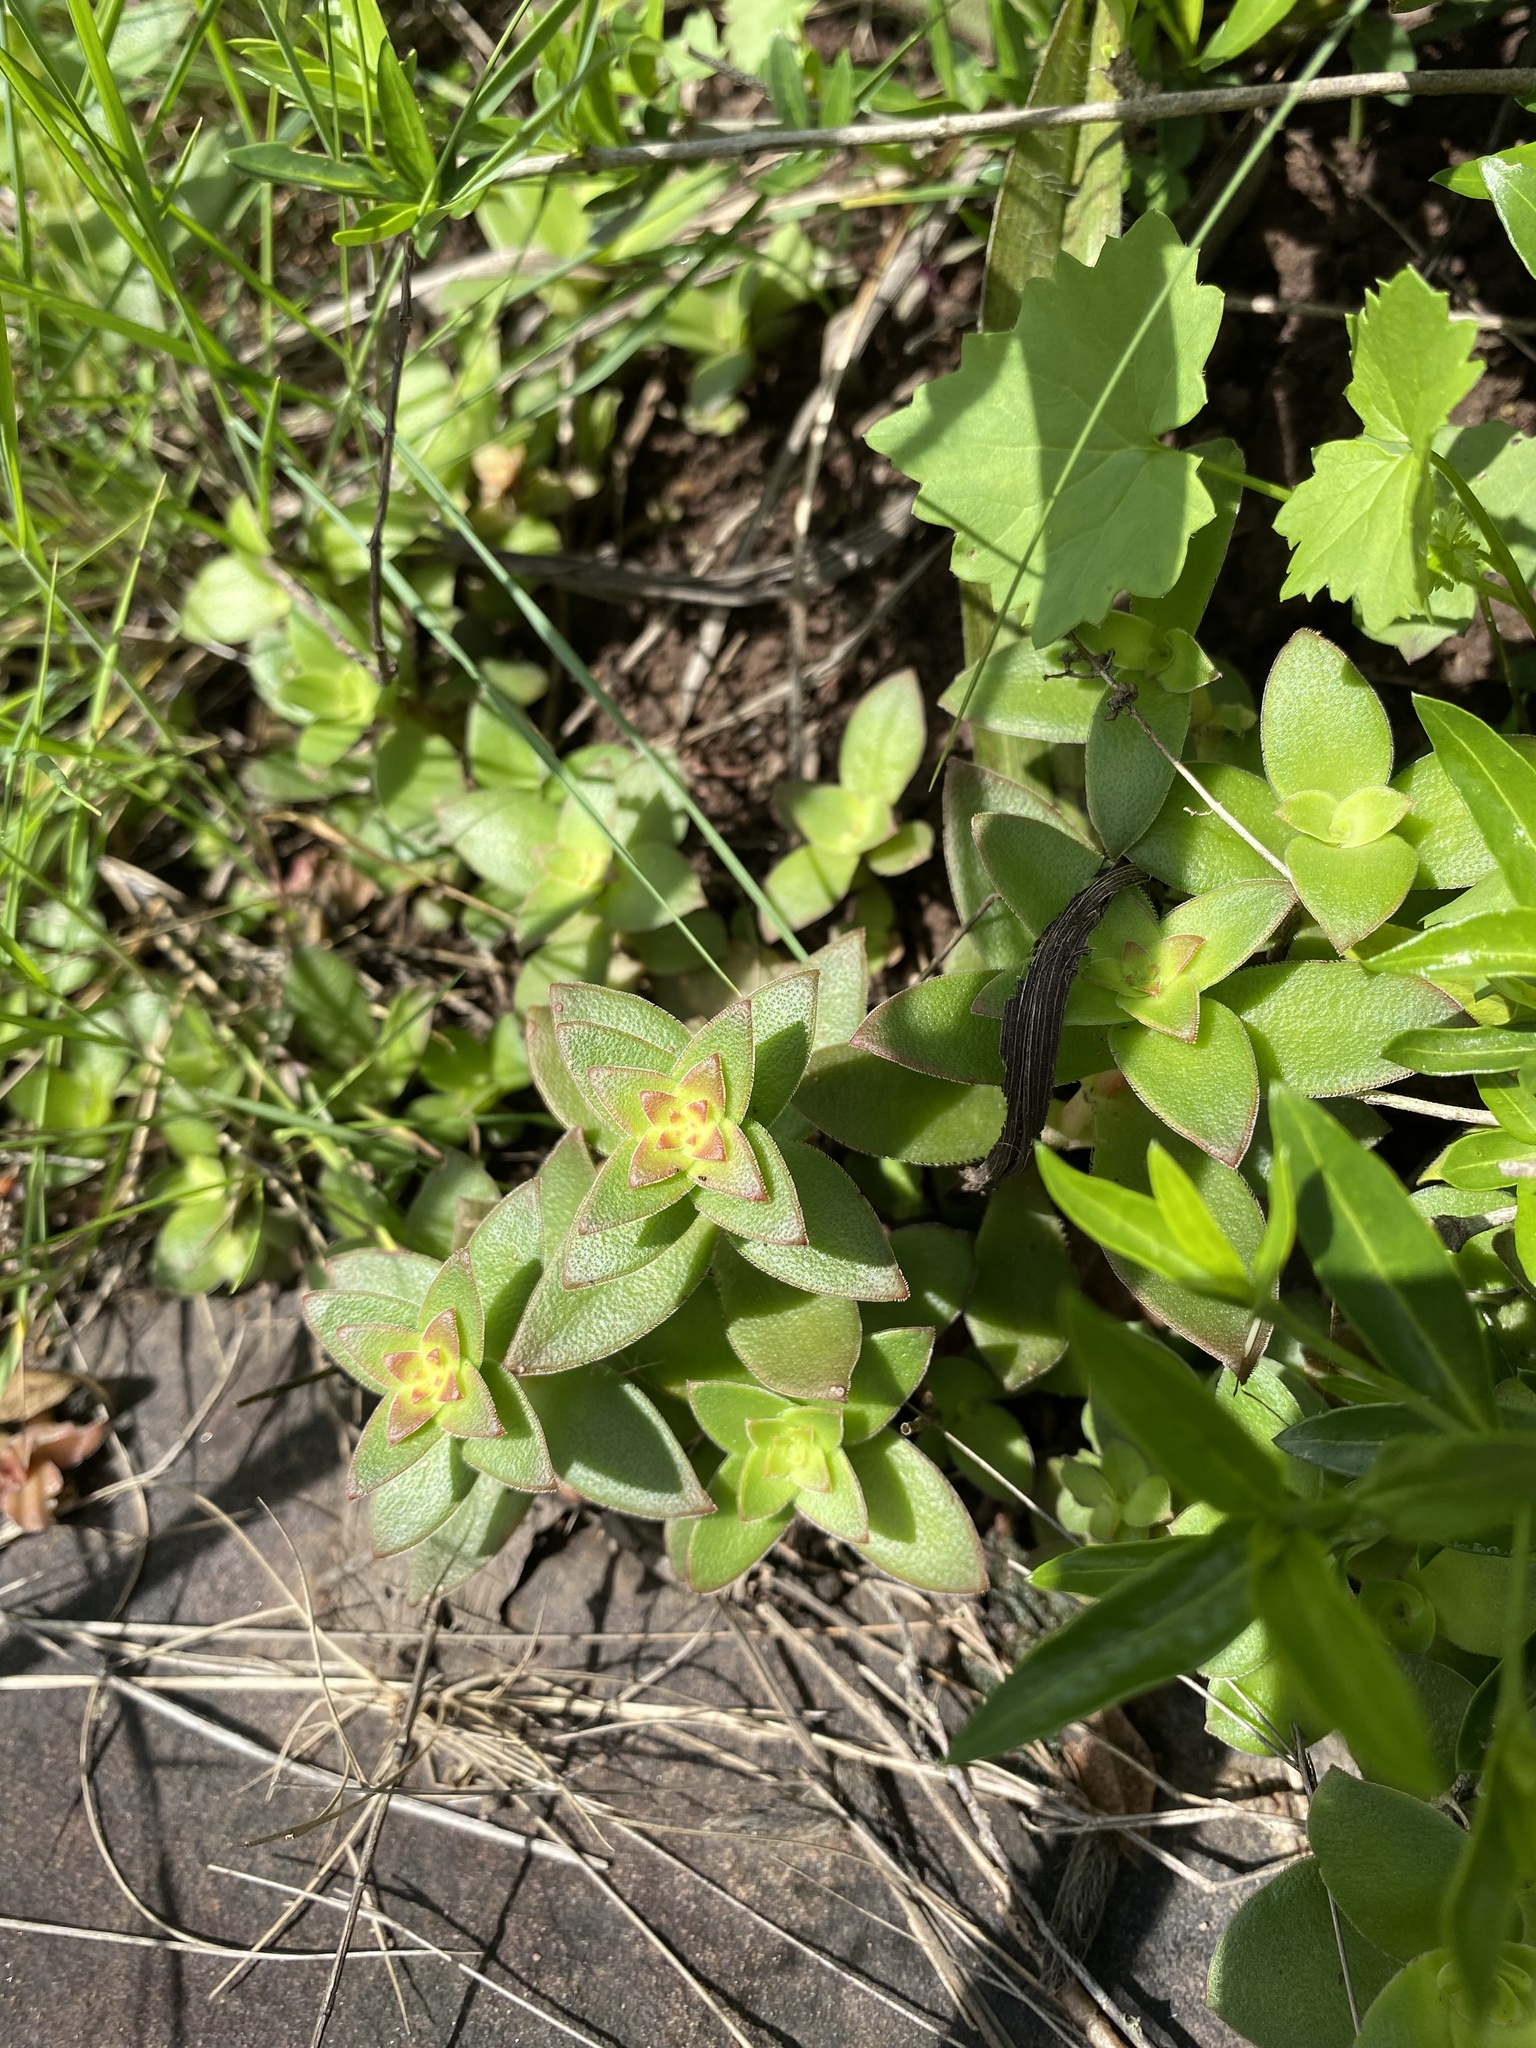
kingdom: Plantae
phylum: Tracheophyta
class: Magnoliopsida
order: Saxifragales
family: Crassulaceae
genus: Crassula
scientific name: Crassula pellucida
